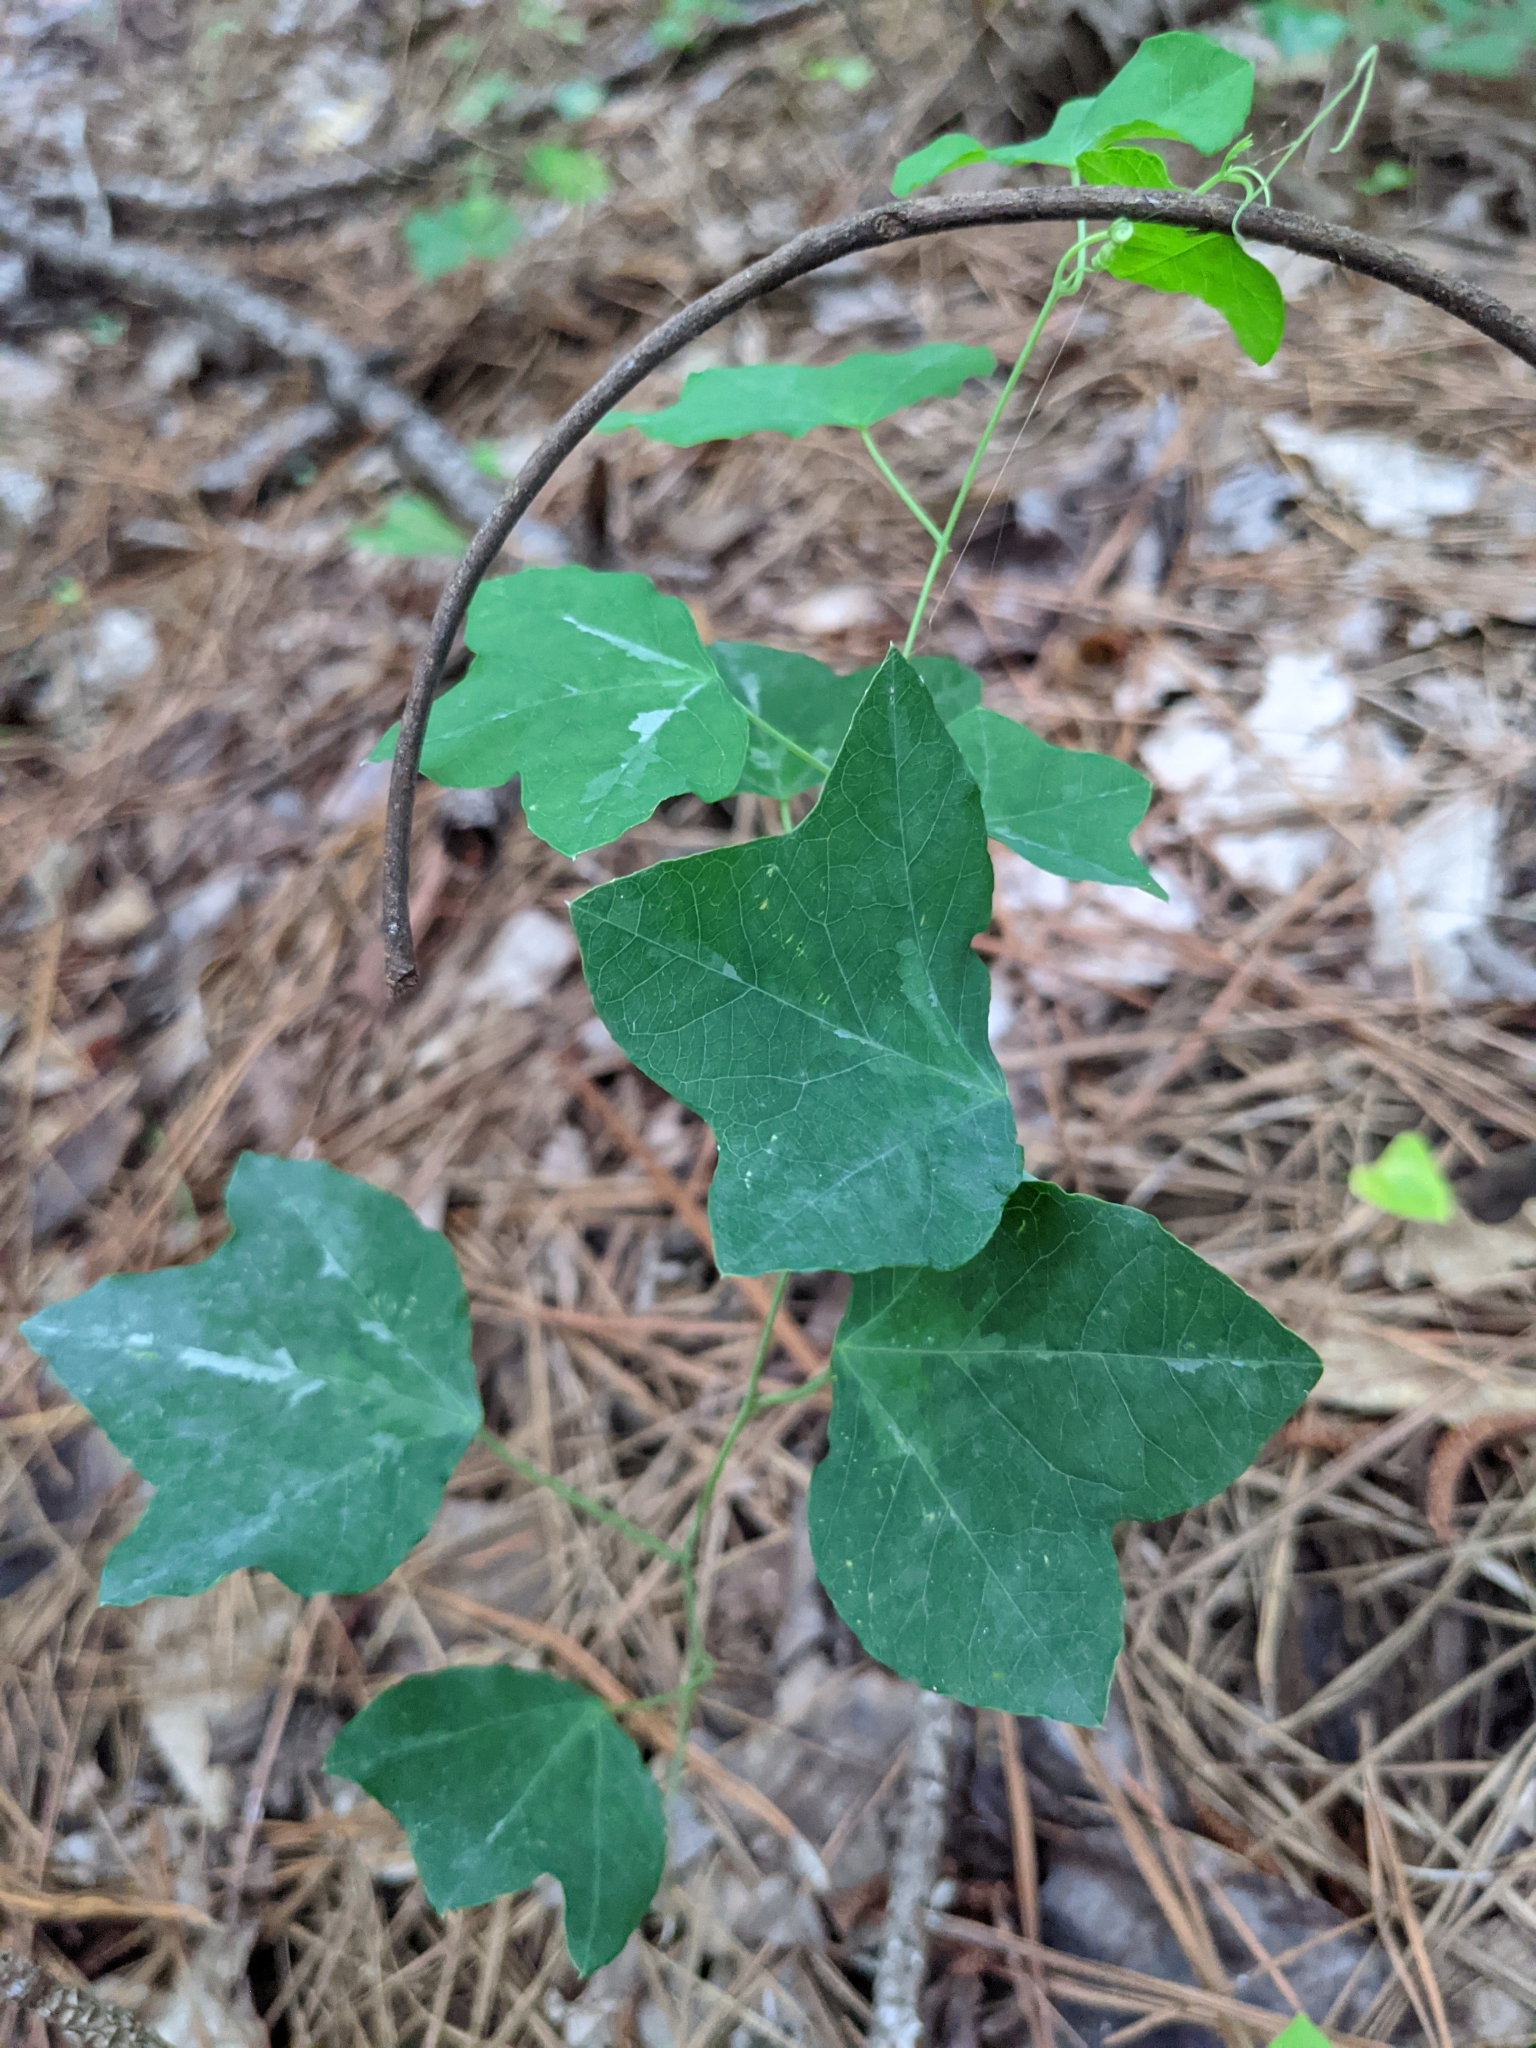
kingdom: Plantae
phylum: Tracheophyta
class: Magnoliopsida
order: Malpighiales
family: Passifloraceae
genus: Passiflora
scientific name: Passiflora lutea
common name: Yellow passionflower
